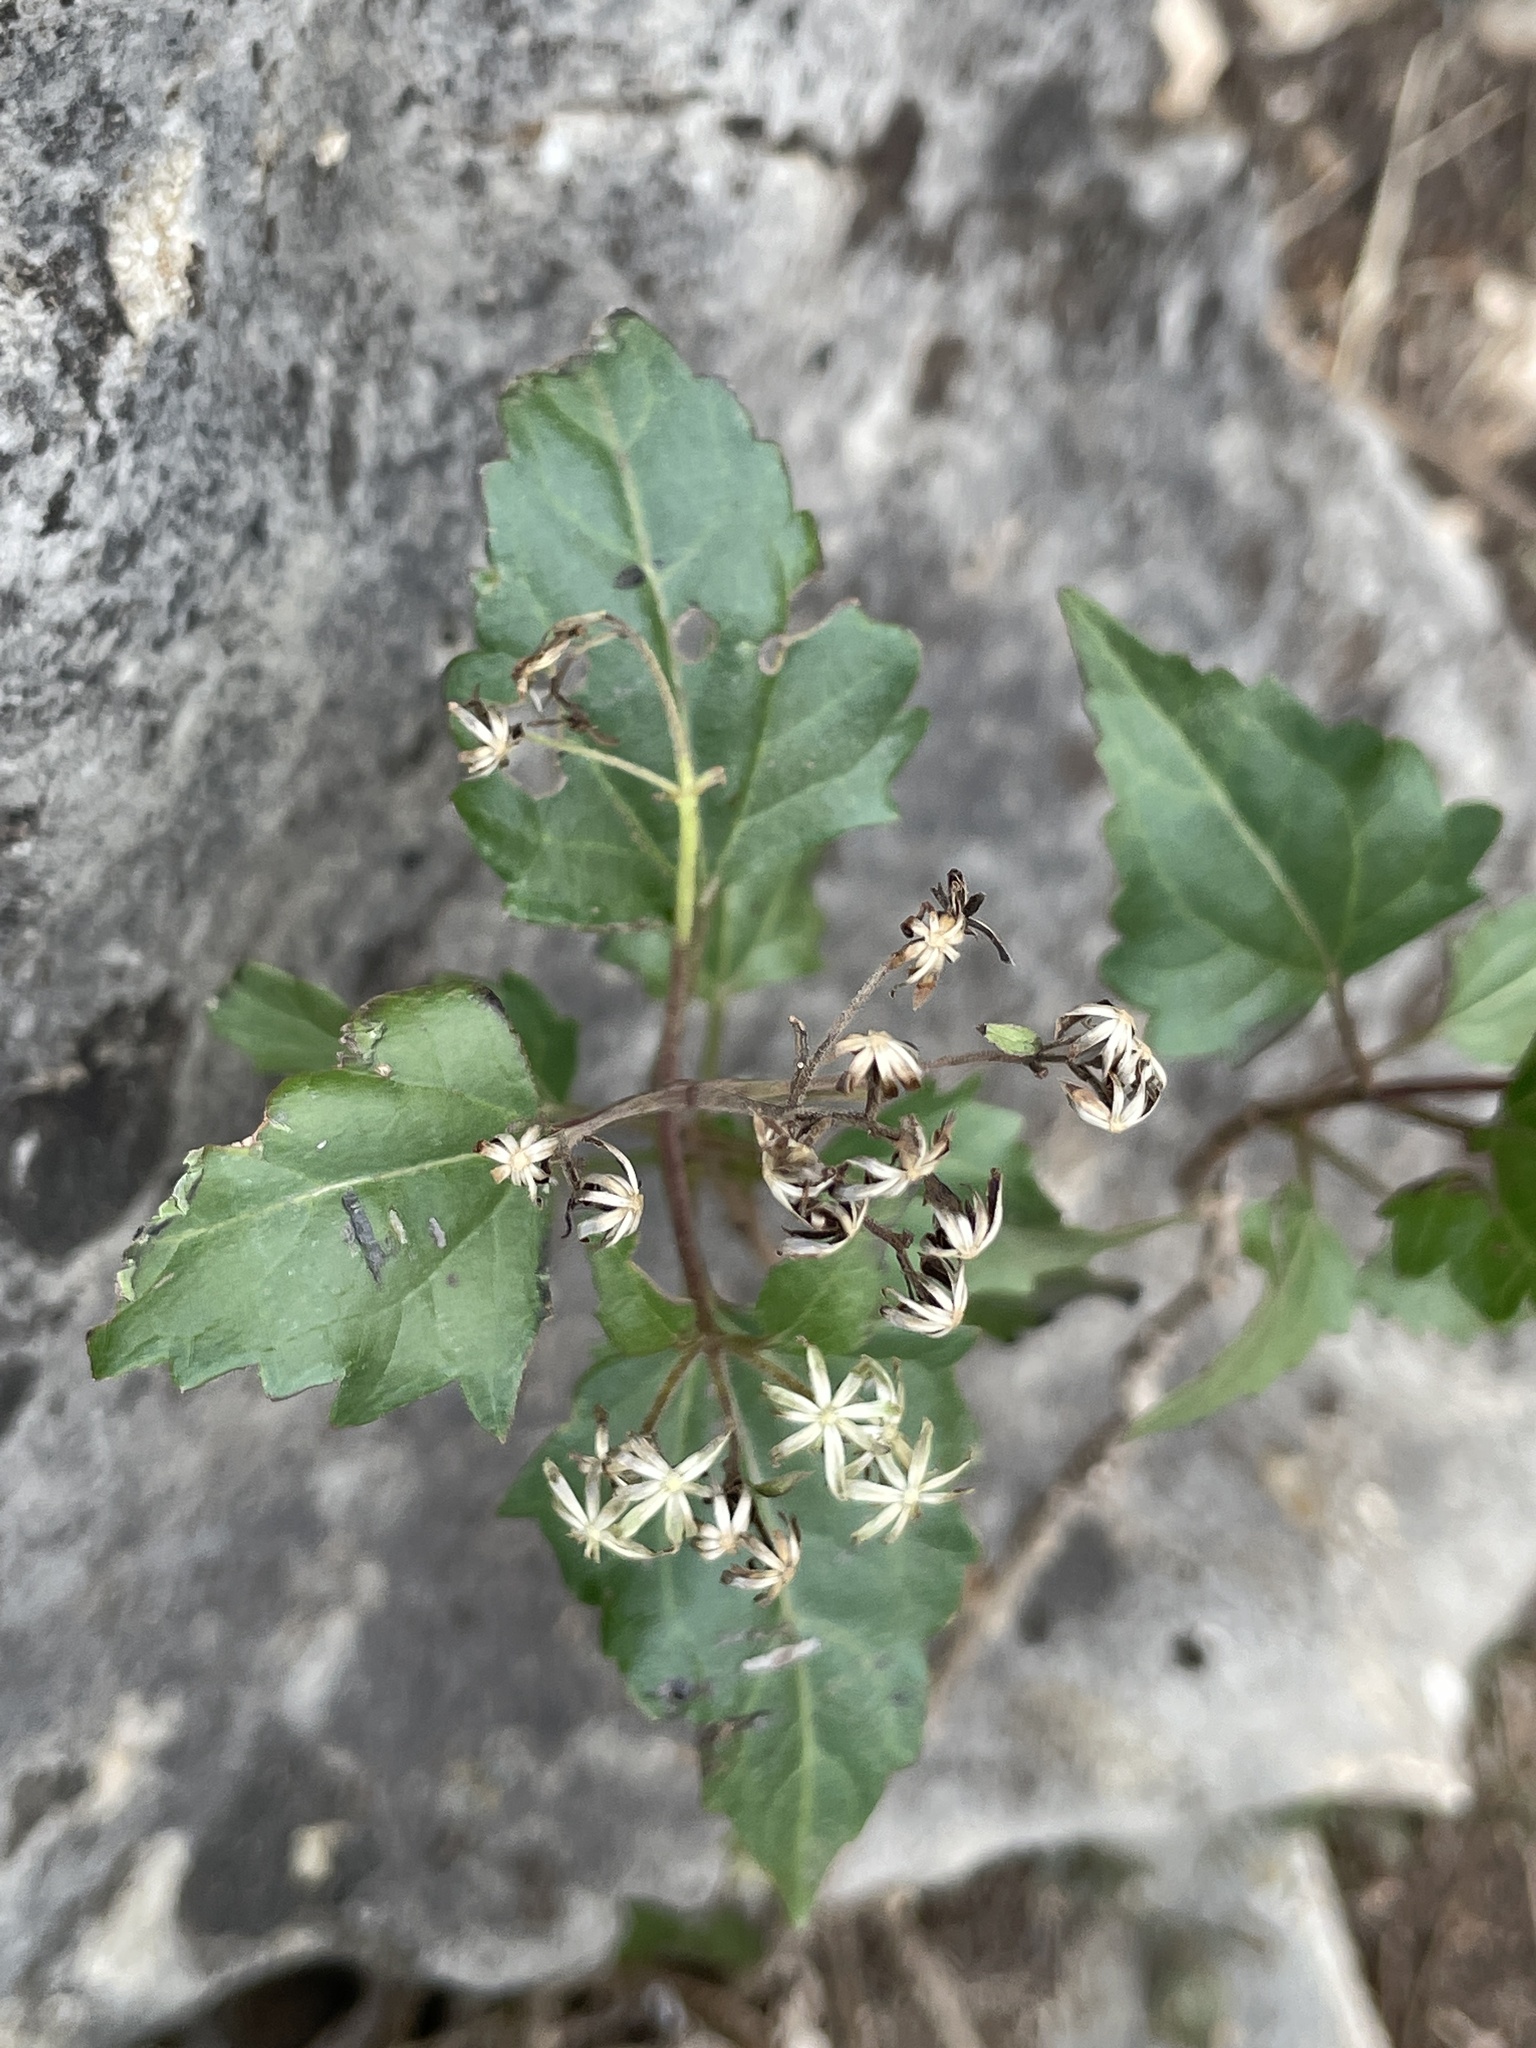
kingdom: Plantae
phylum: Tracheophyta
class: Magnoliopsida
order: Asterales
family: Asteraceae
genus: Ageratina
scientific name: Ageratina havanensis
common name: Havana snakeroot
